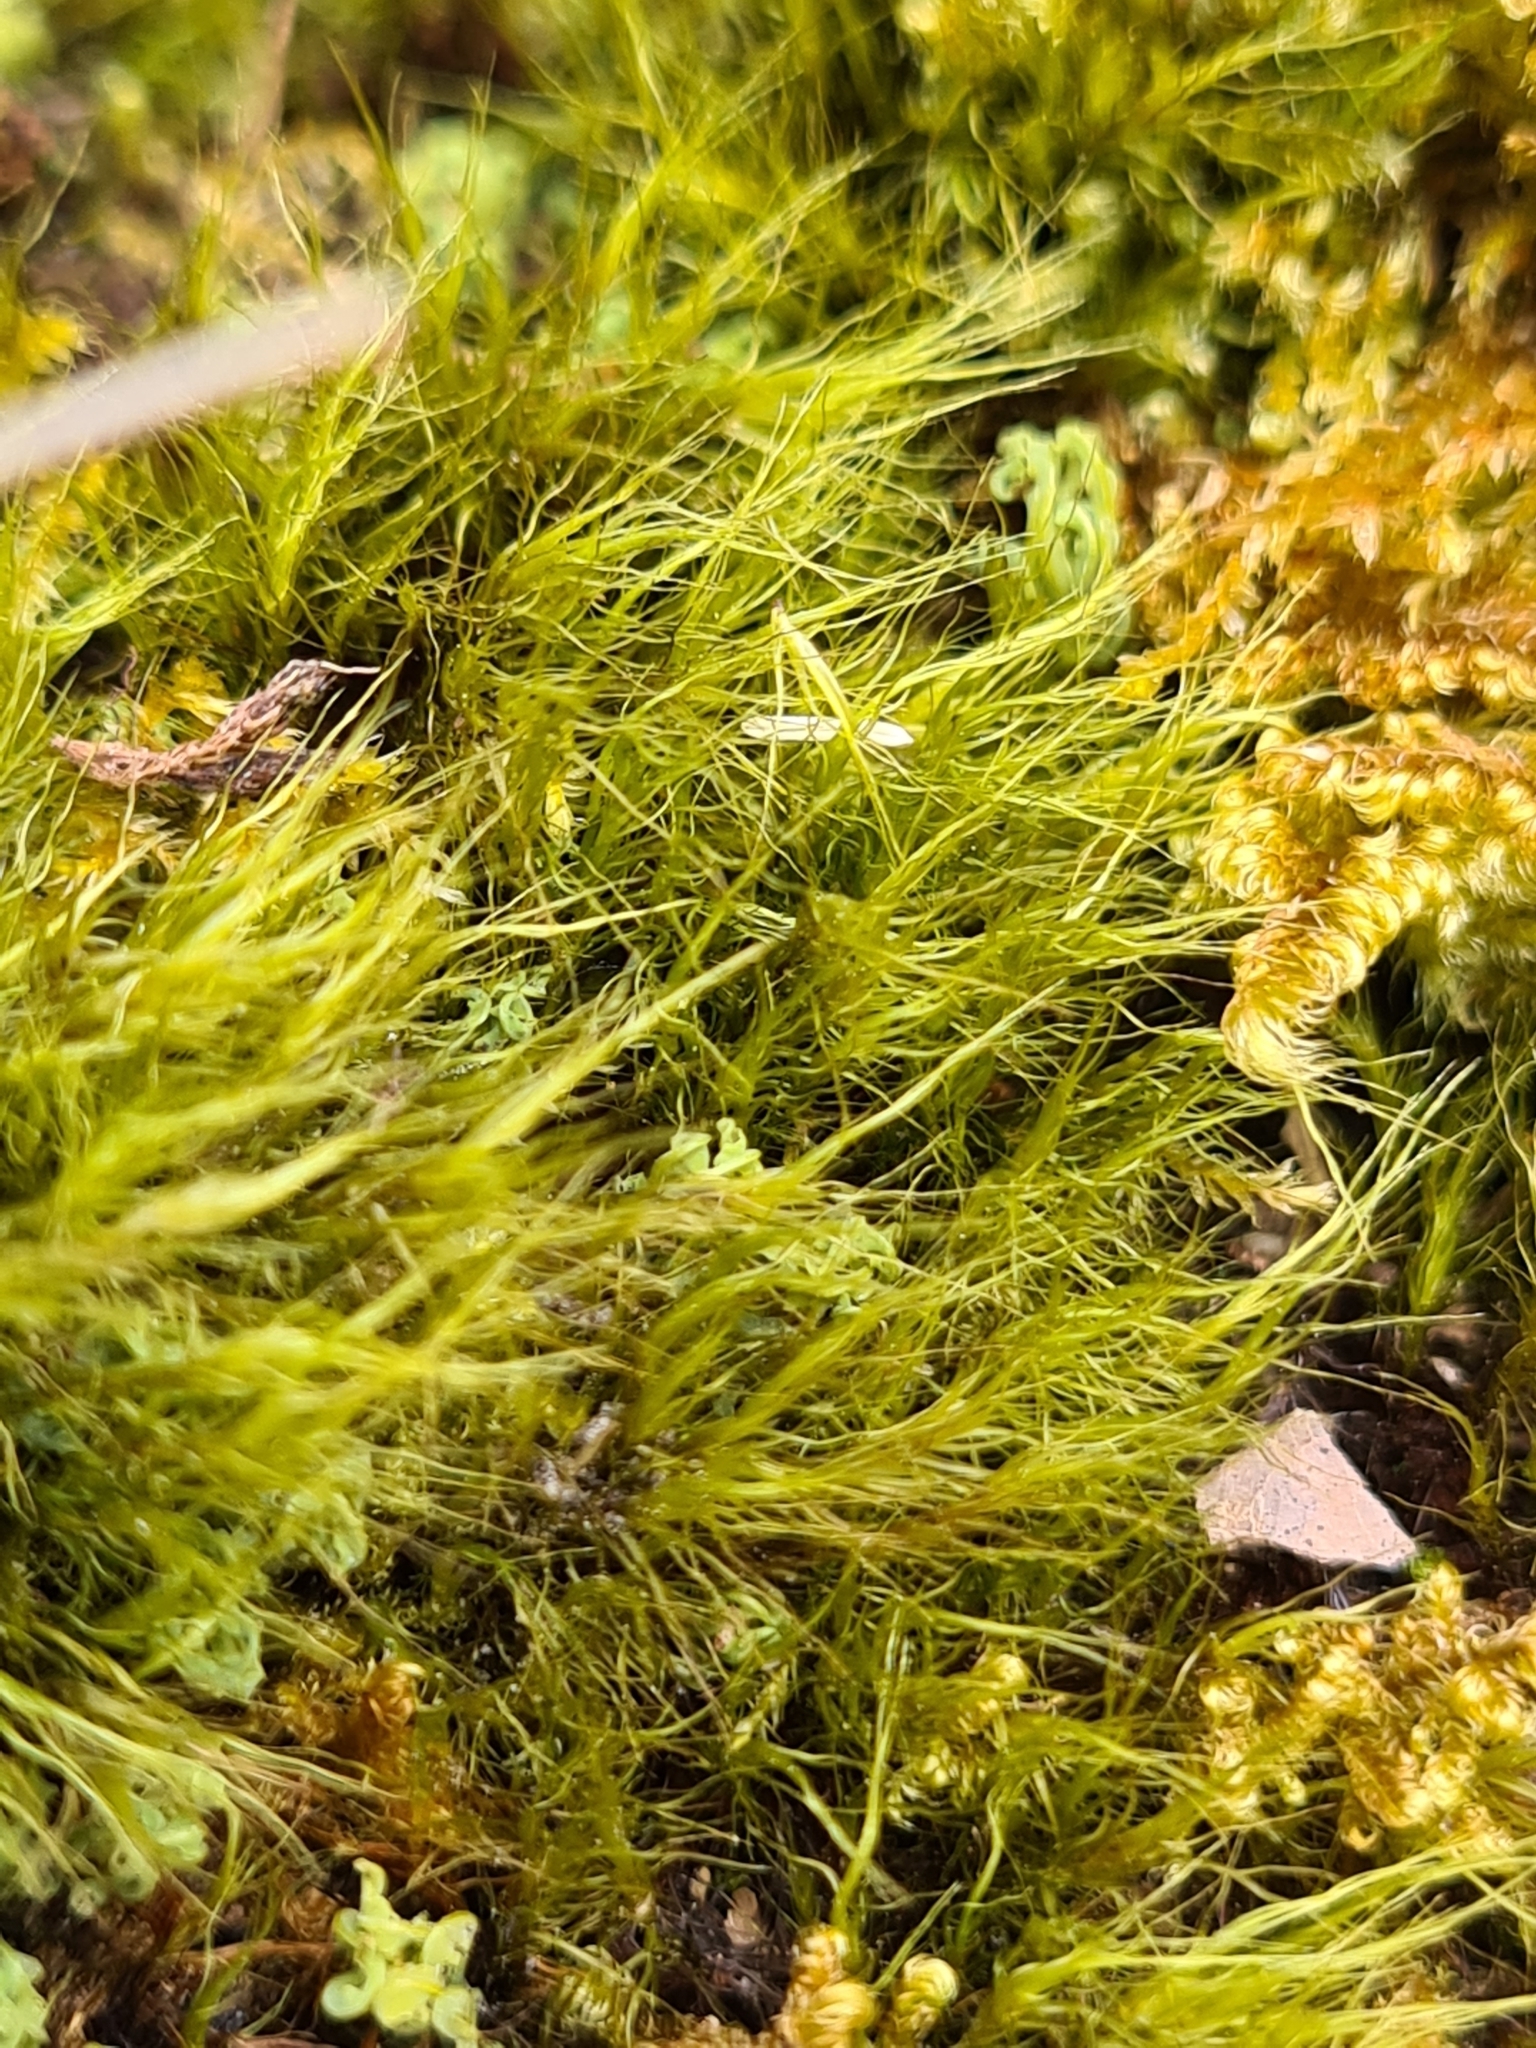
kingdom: Plantae
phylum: Bryophyta
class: Bryopsida
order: Scouleriales
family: Flexitrichaceae
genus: Flexitrichum
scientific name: Flexitrichum gracile
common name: Slender ditrichum
